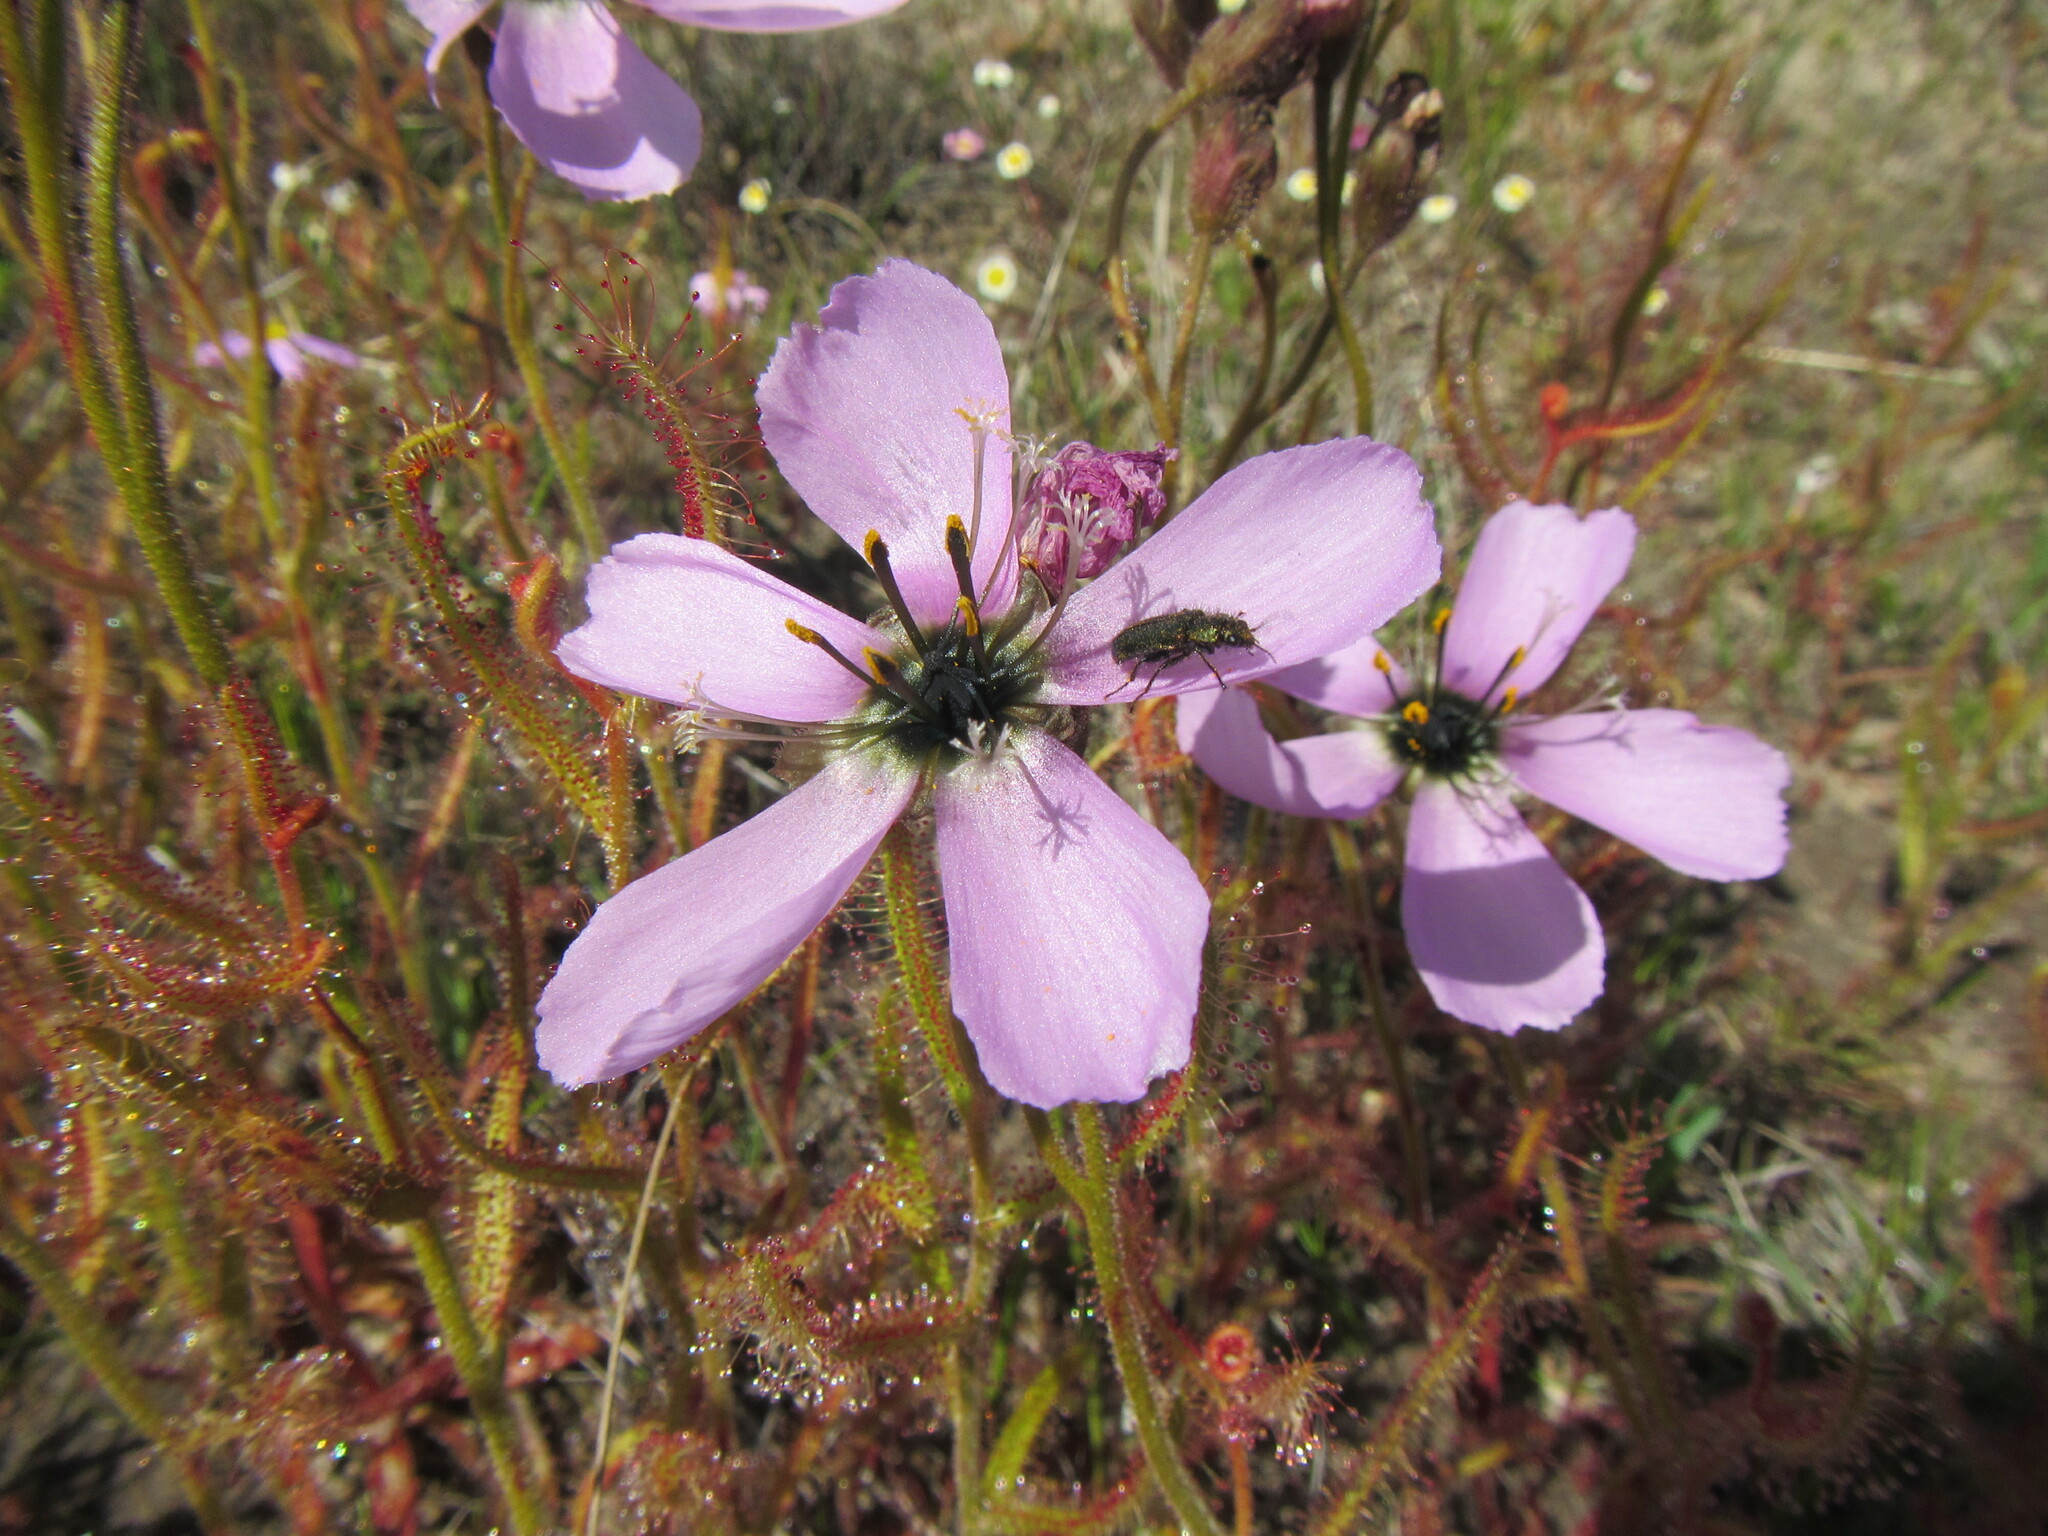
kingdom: Plantae
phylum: Tracheophyta
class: Magnoliopsida
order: Caryophyllales
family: Droseraceae
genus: Drosera
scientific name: Drosera cistiflora
